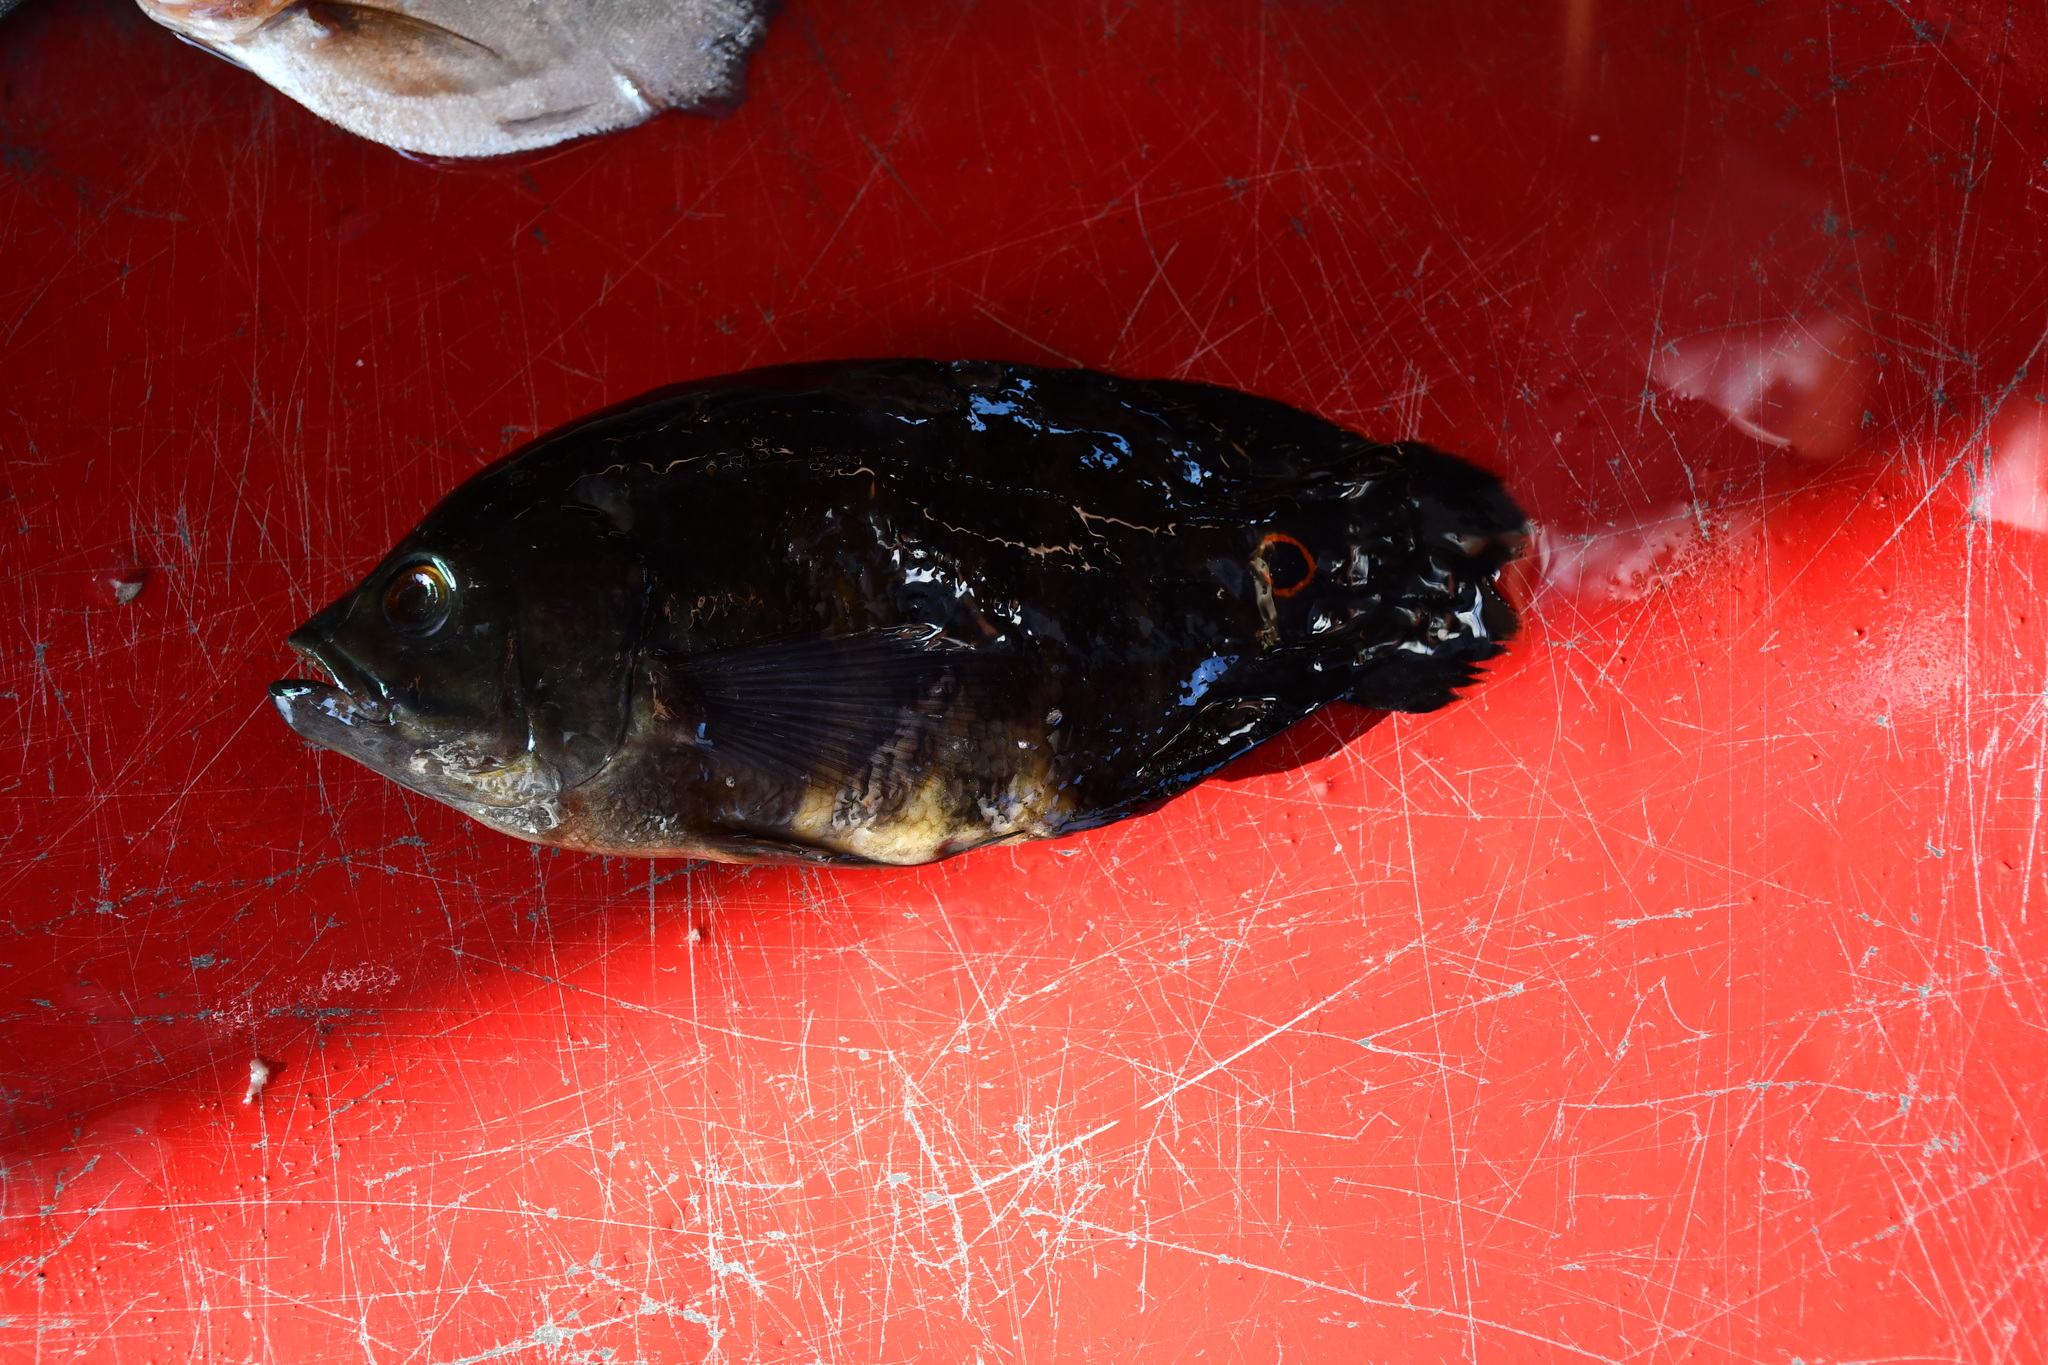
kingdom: Animalia
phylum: Chordata
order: Perciformes
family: Cichlidae
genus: Astronotus
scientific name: Astronotus crassipinnis
